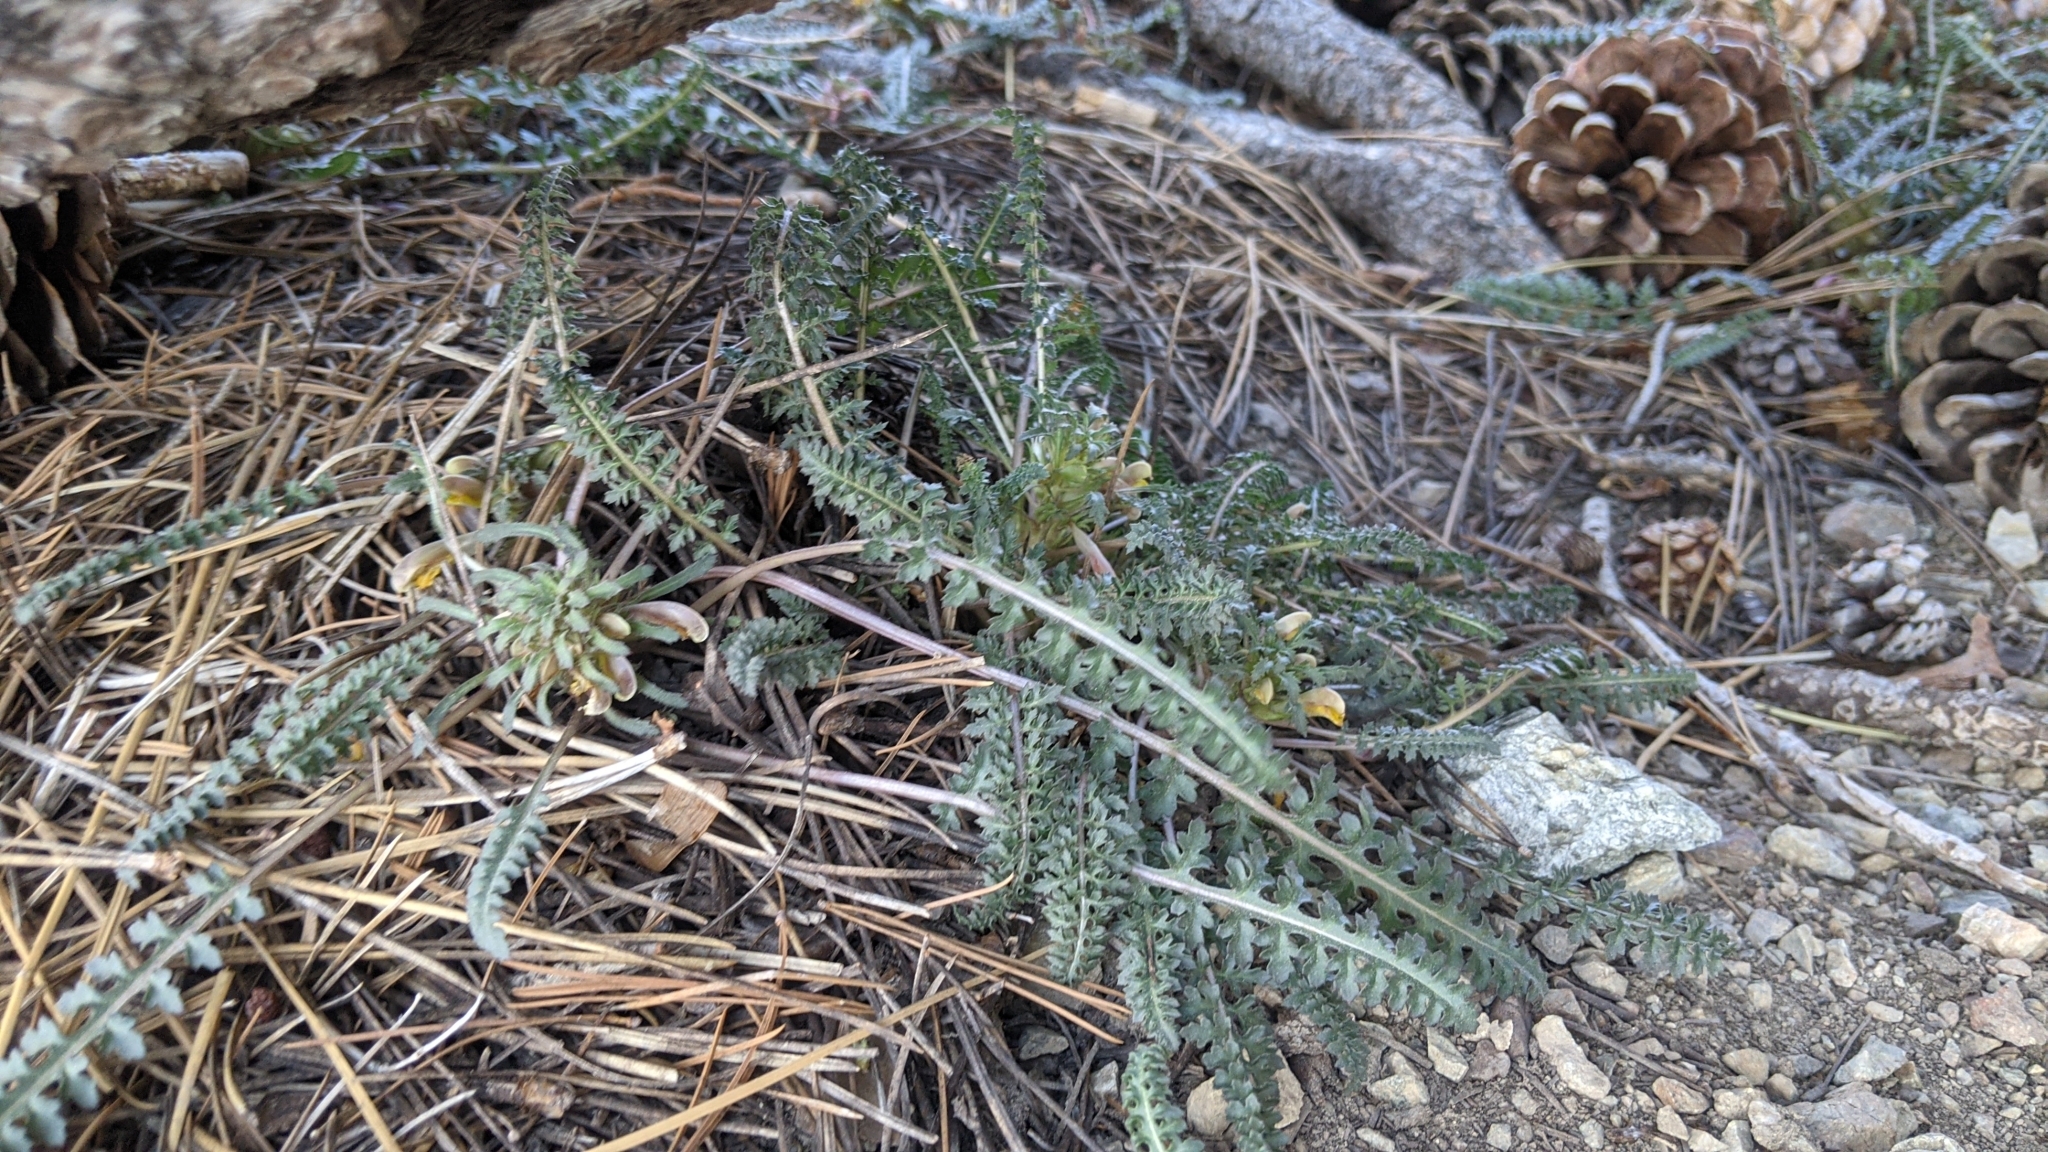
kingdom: Plantae
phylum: Tracheophyta
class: Magnoliopsida
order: Lamiales
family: Orobanchaceae
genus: Pedicularis
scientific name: Pedicularis semibarbata
